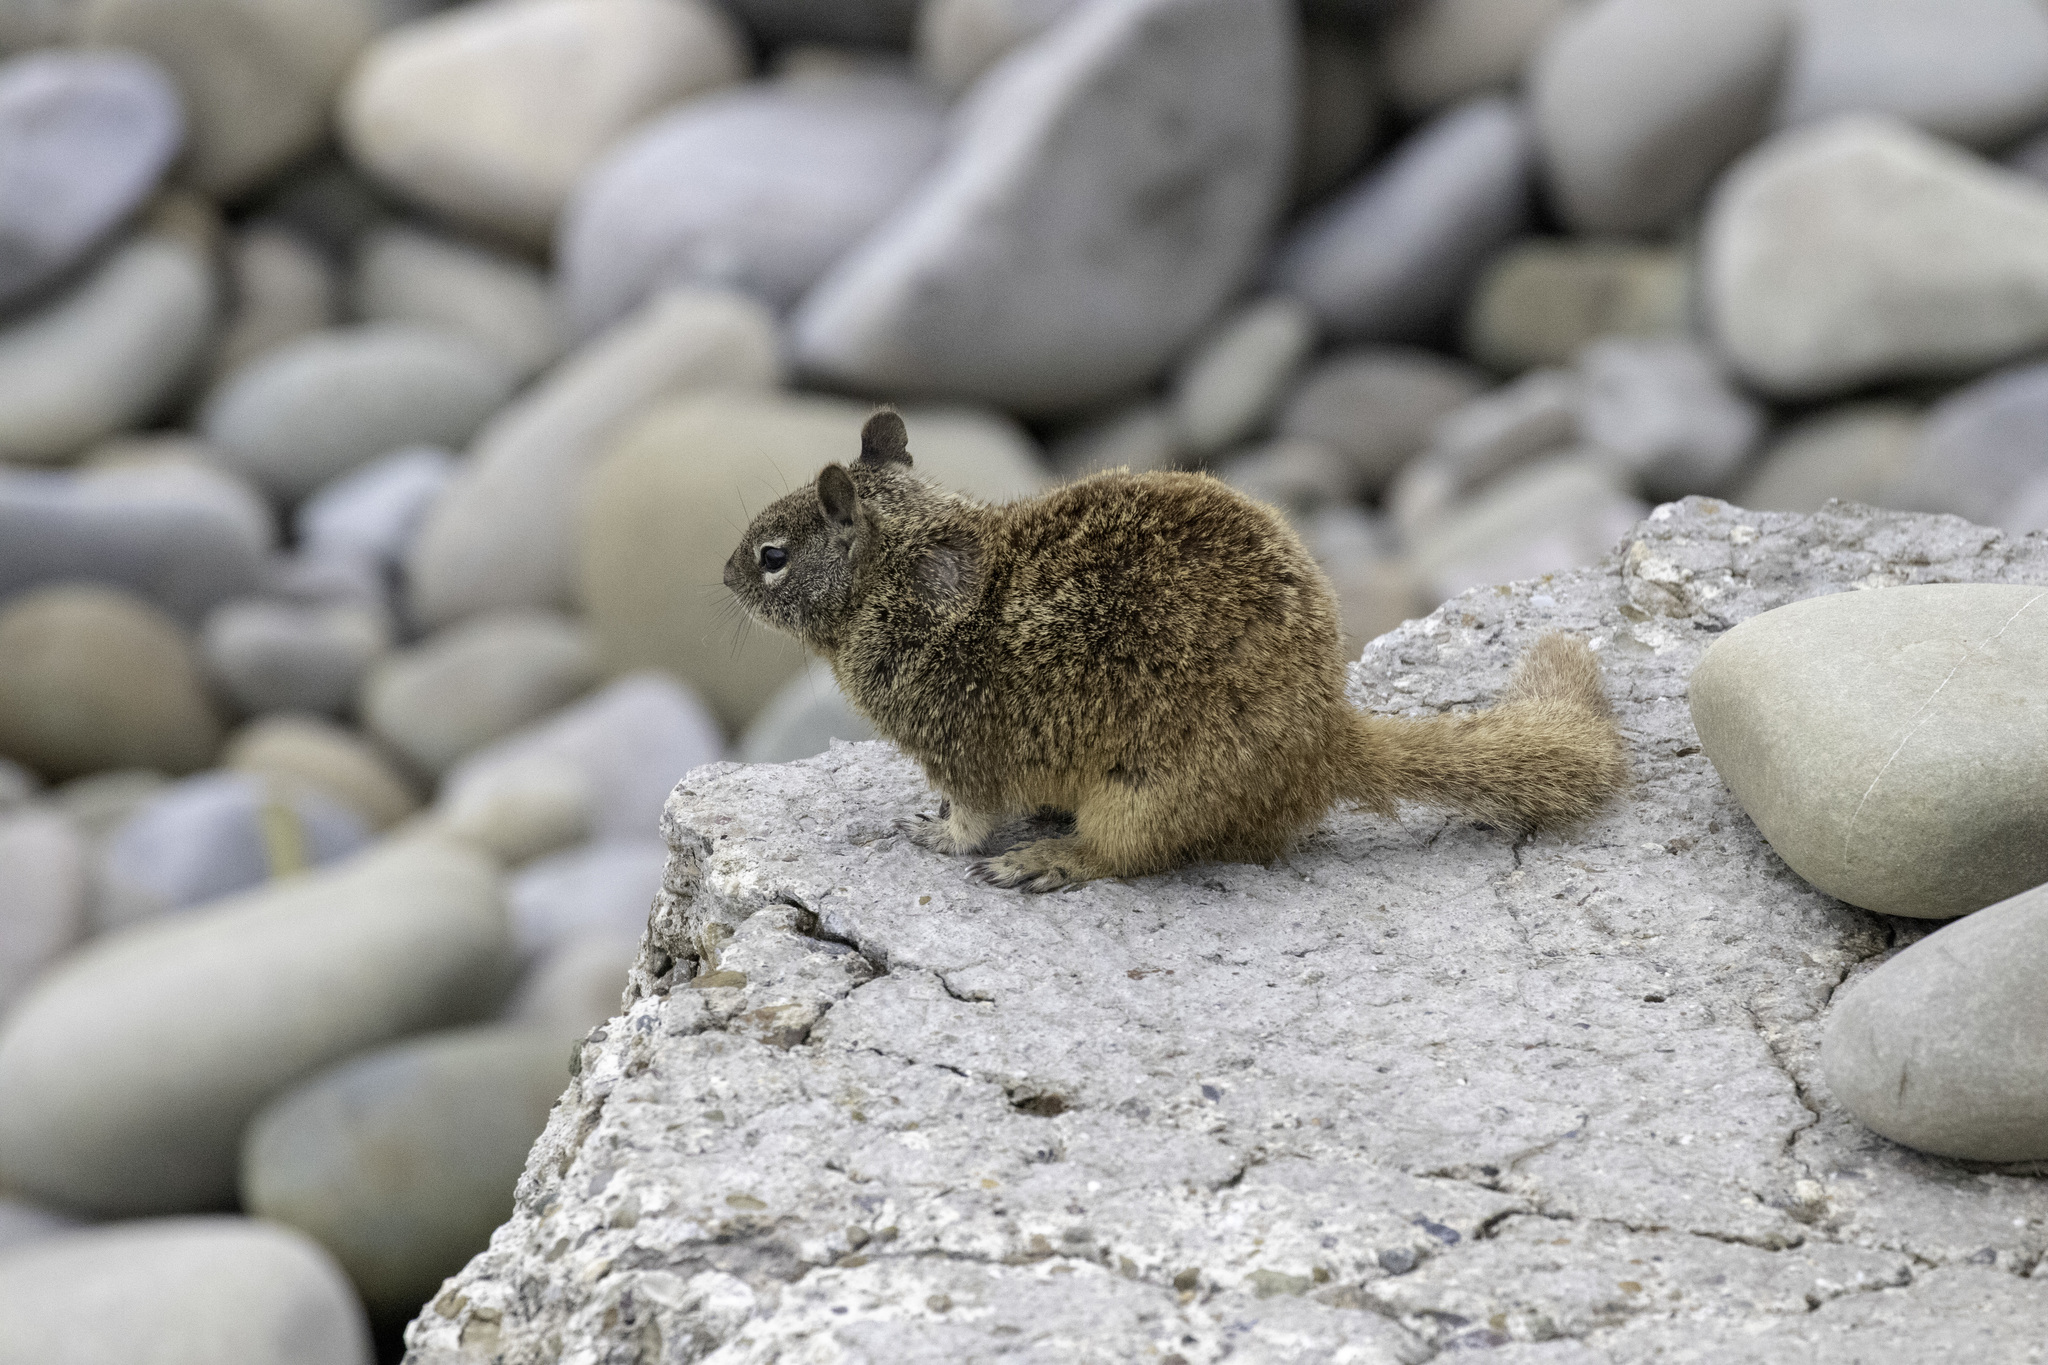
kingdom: Animalia
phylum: Chordata
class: Mammalia
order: Rodentia
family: Sciuridae
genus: Otospermophilus
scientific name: Otospermophilus beecheyi
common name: California ground squirrel
